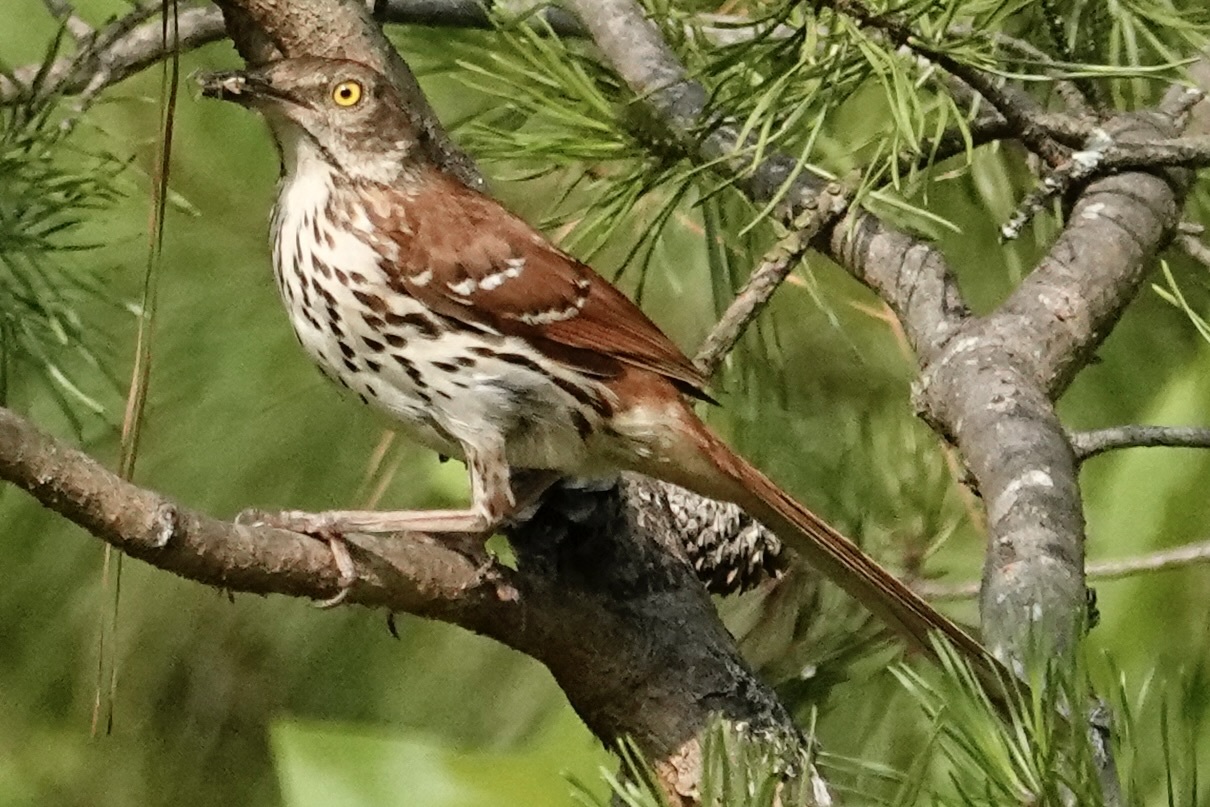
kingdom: Animalia
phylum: Chordata
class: Aves
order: Passeriformes
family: Mimidae
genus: Toxostoma
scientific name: Toxostoma rufum
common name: Brown thrasher
